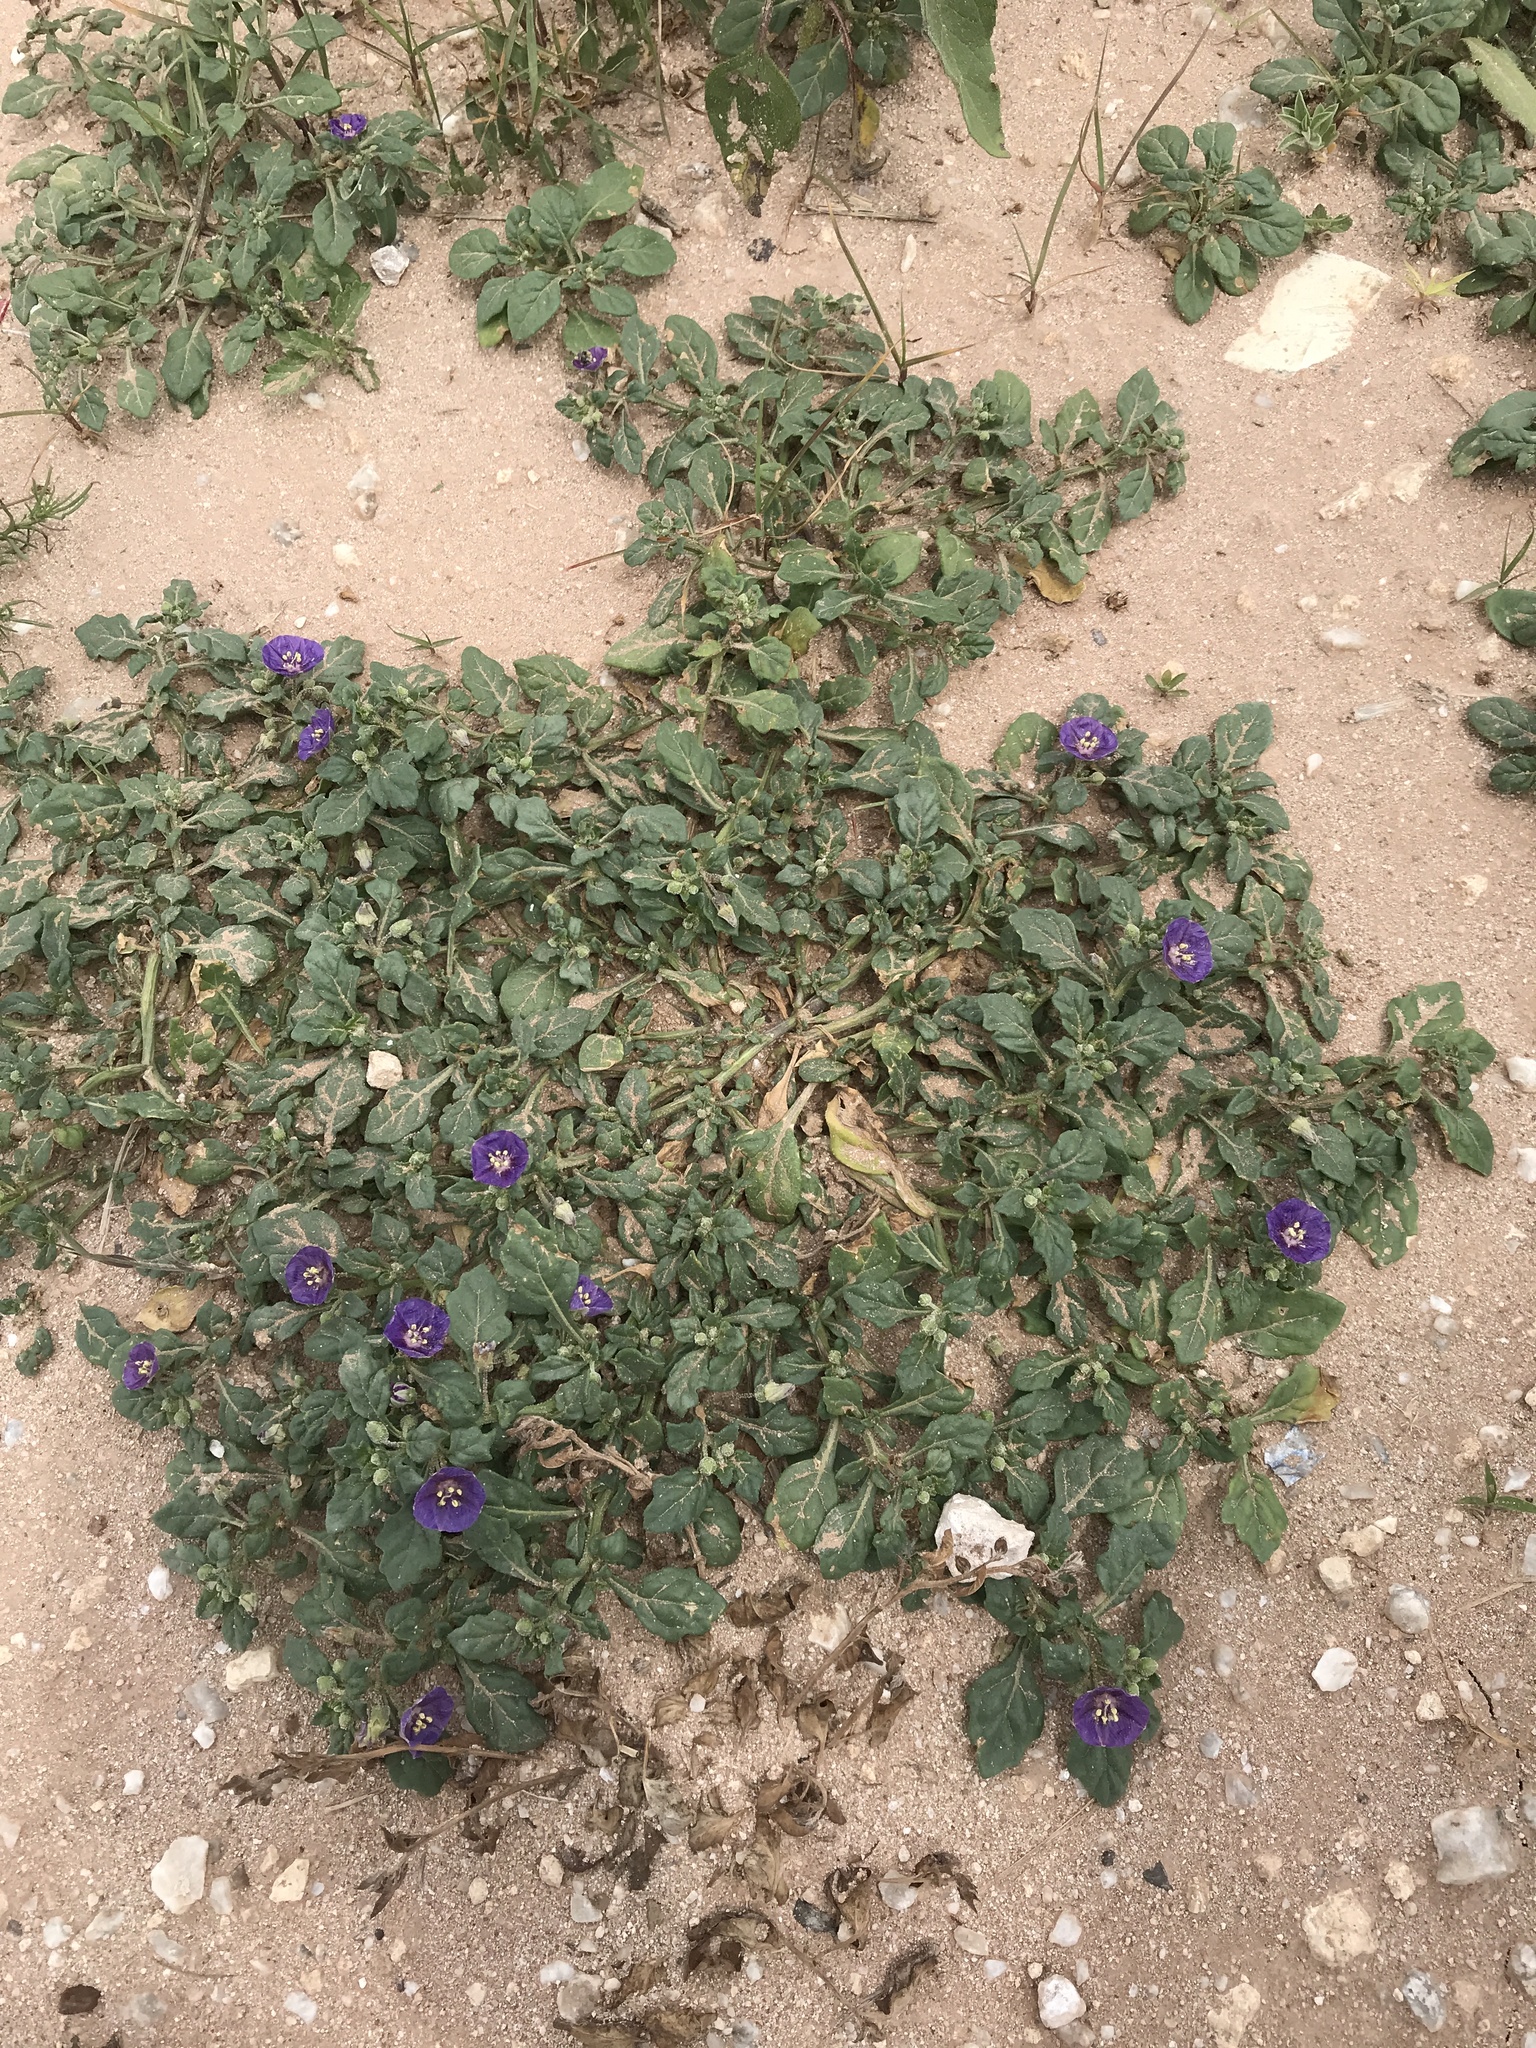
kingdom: Plantae
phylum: Tracheophyta
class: Magnoliopsida
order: Solanales
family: Solanaceae
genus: Quincula
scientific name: Quincula lobata
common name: Purple-ground-cherry
